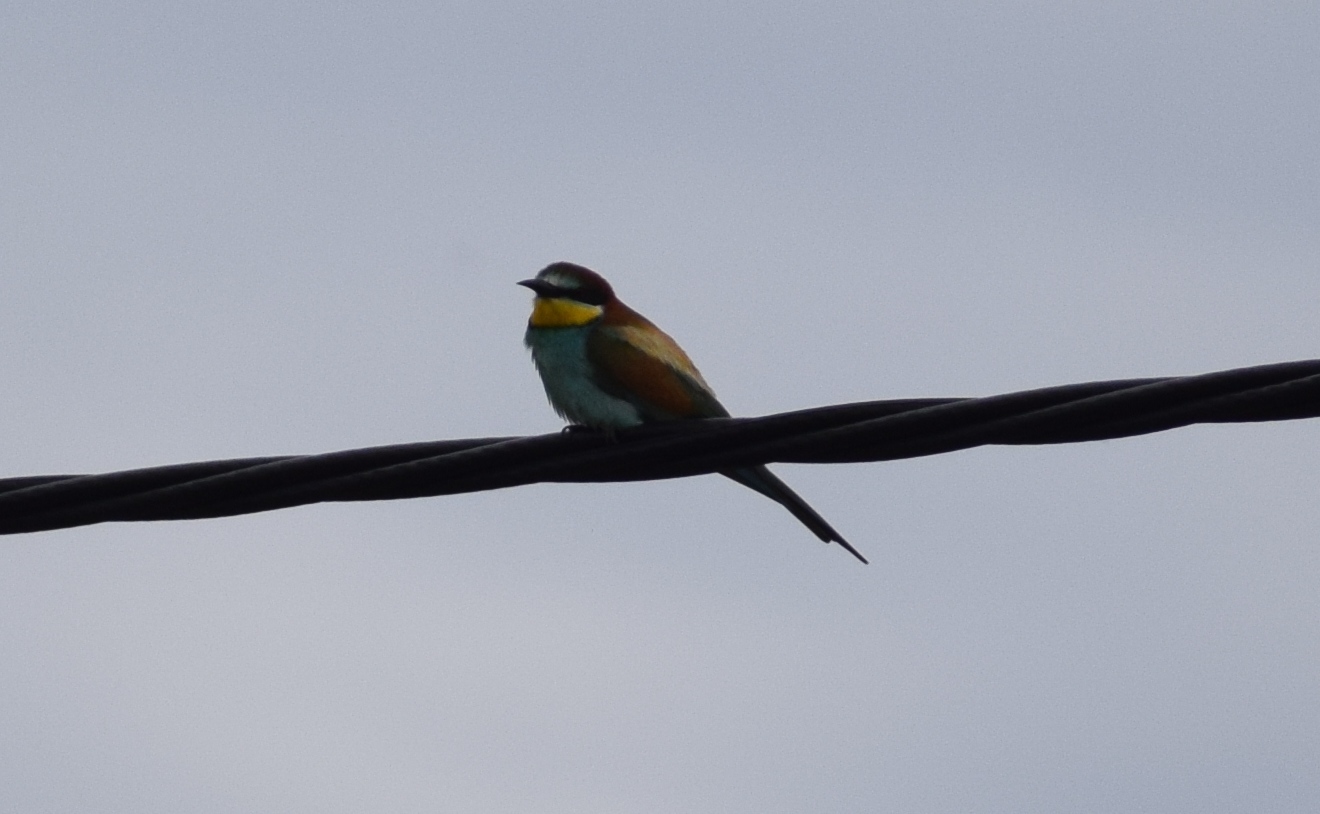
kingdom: Animalia
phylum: Chordata
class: Aves
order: Coraciiformes
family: Meropidae
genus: Merops
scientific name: Merops apiaster
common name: European bee-eater
